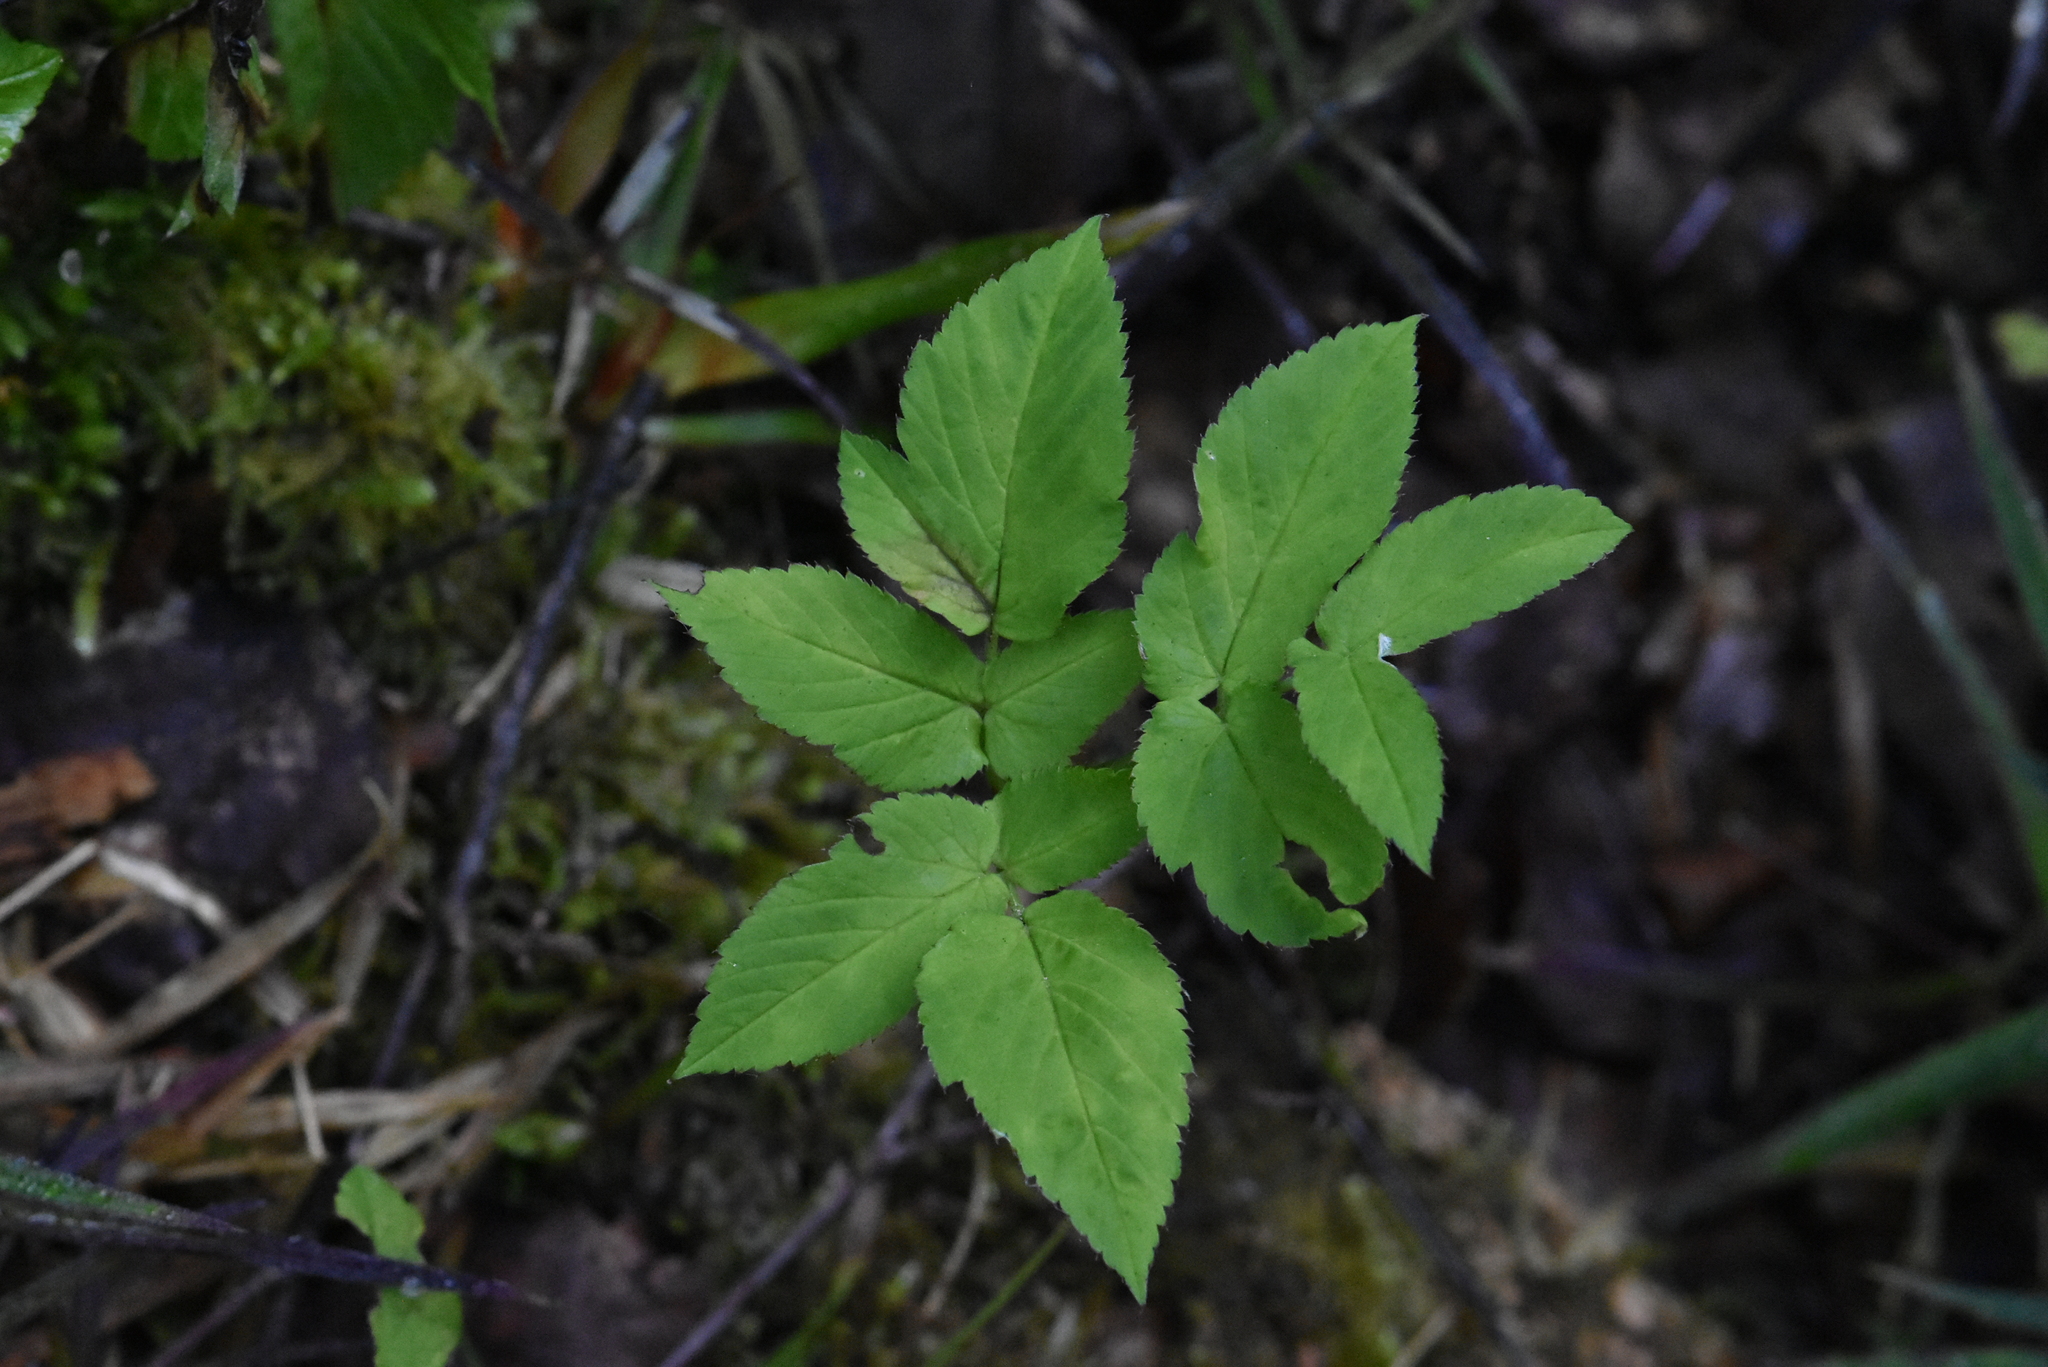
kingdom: Plantae
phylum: Tracheophyta
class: Magnoliopsida
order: Apiales
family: Apiaceae
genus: Aegopodium
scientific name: Aegopodium podagraria
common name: Ground-elder
